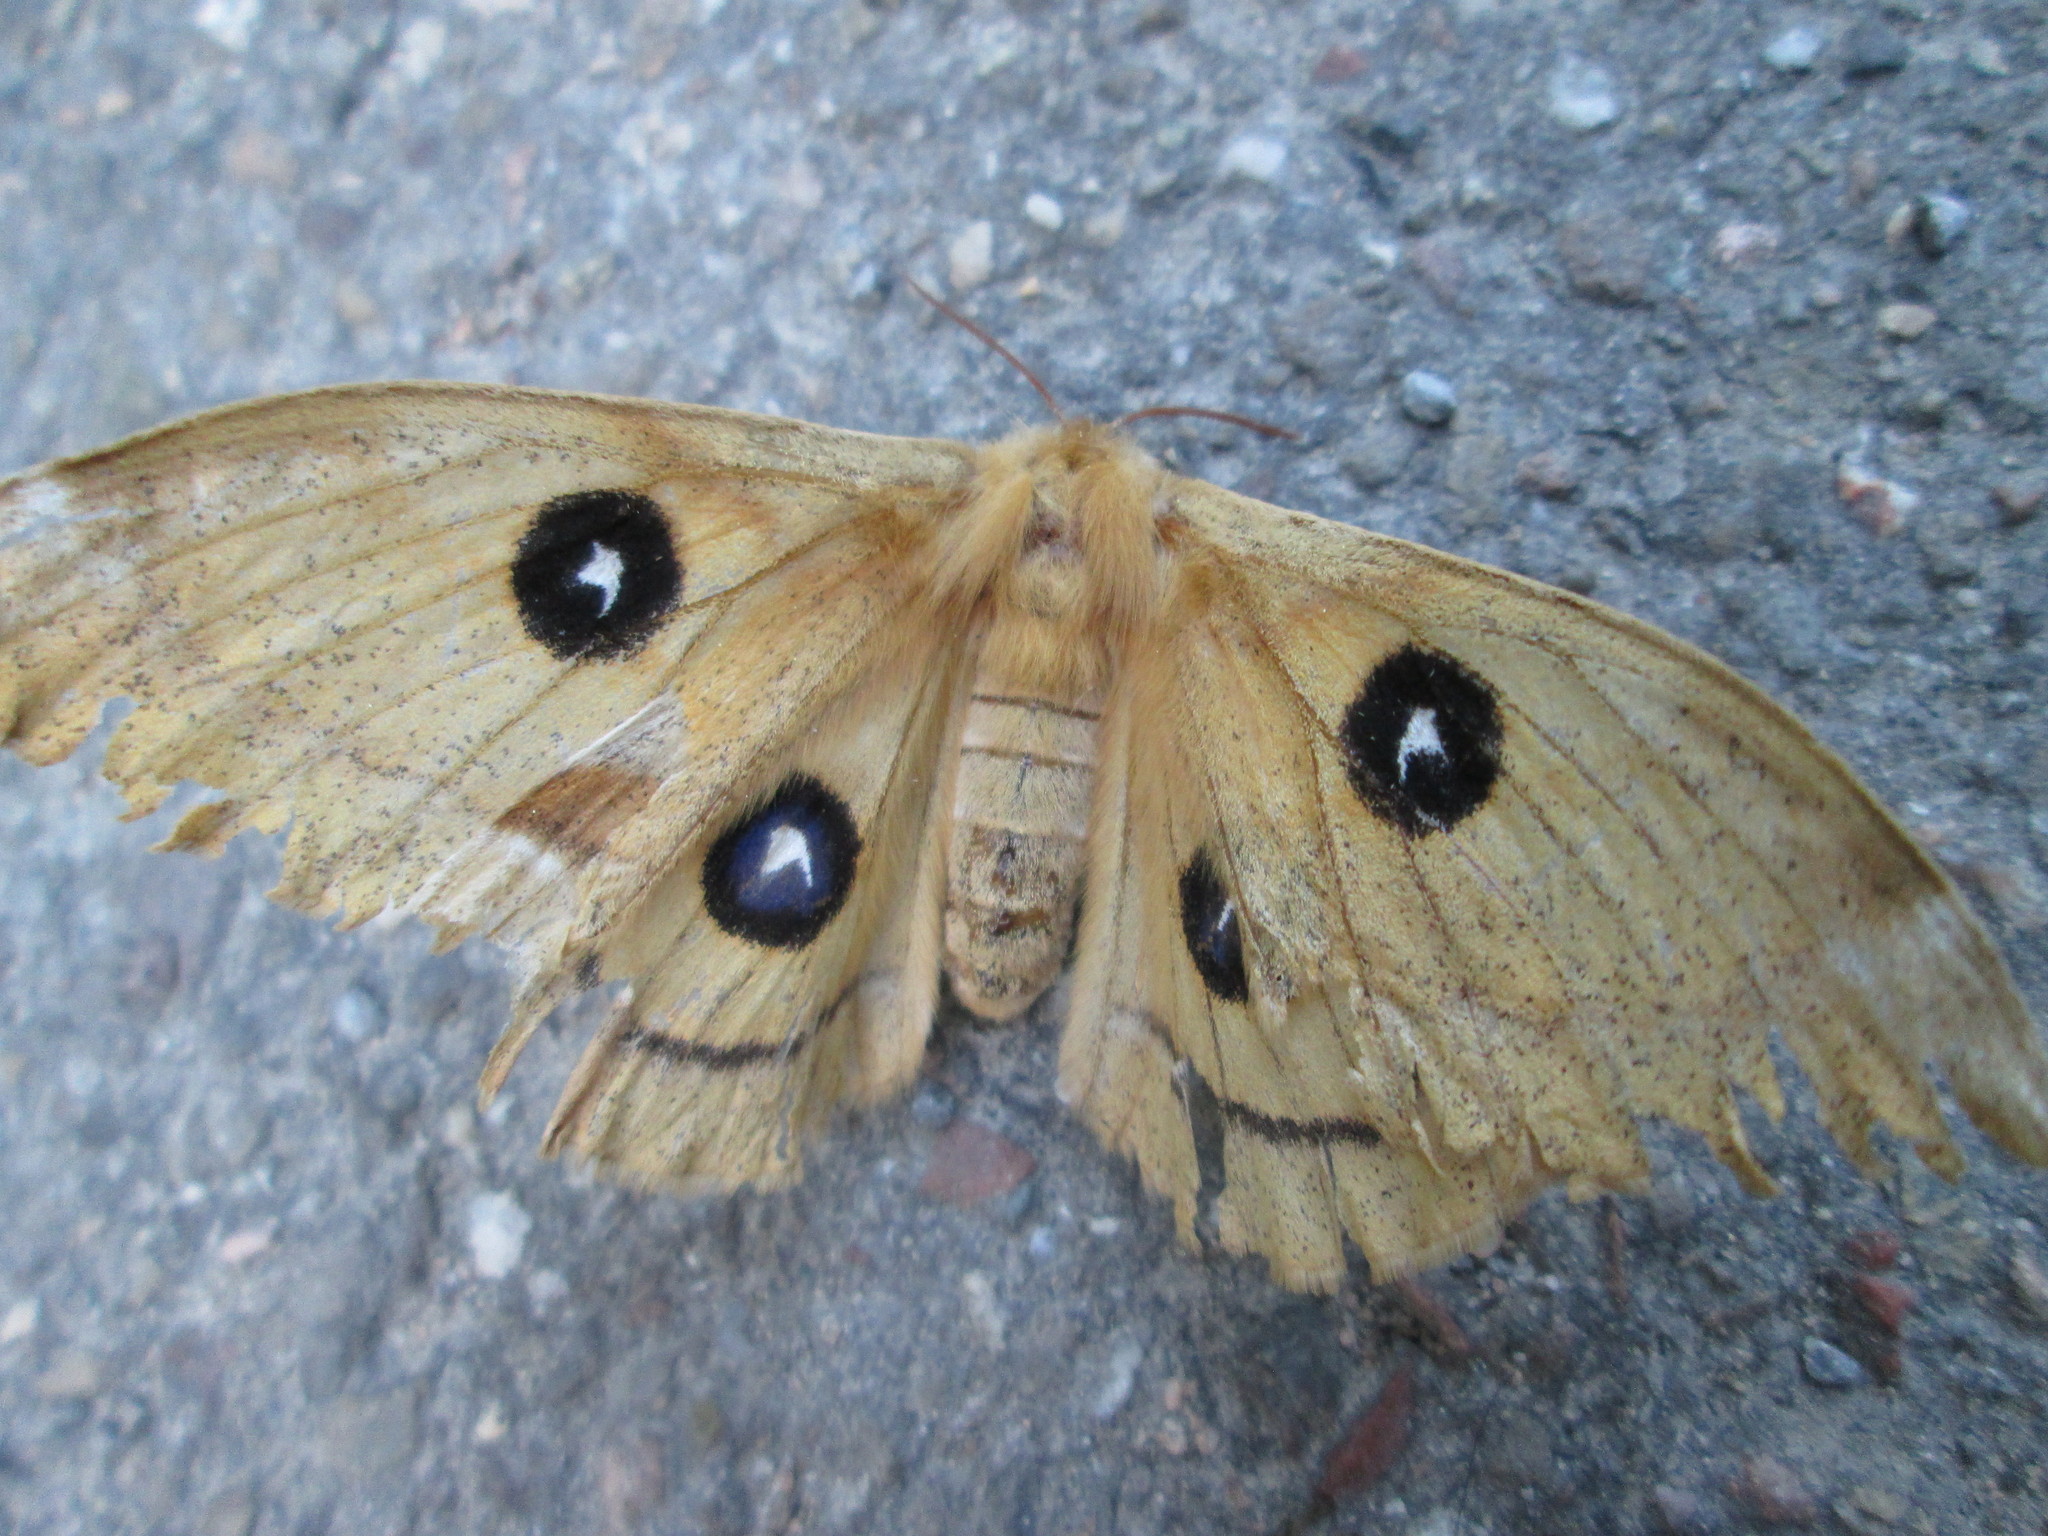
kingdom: Animalia
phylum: Arthropoda
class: Insecta
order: Lepidoptera
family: Saturniidae
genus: Aglia
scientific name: Aglia tau
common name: Tau emperor
